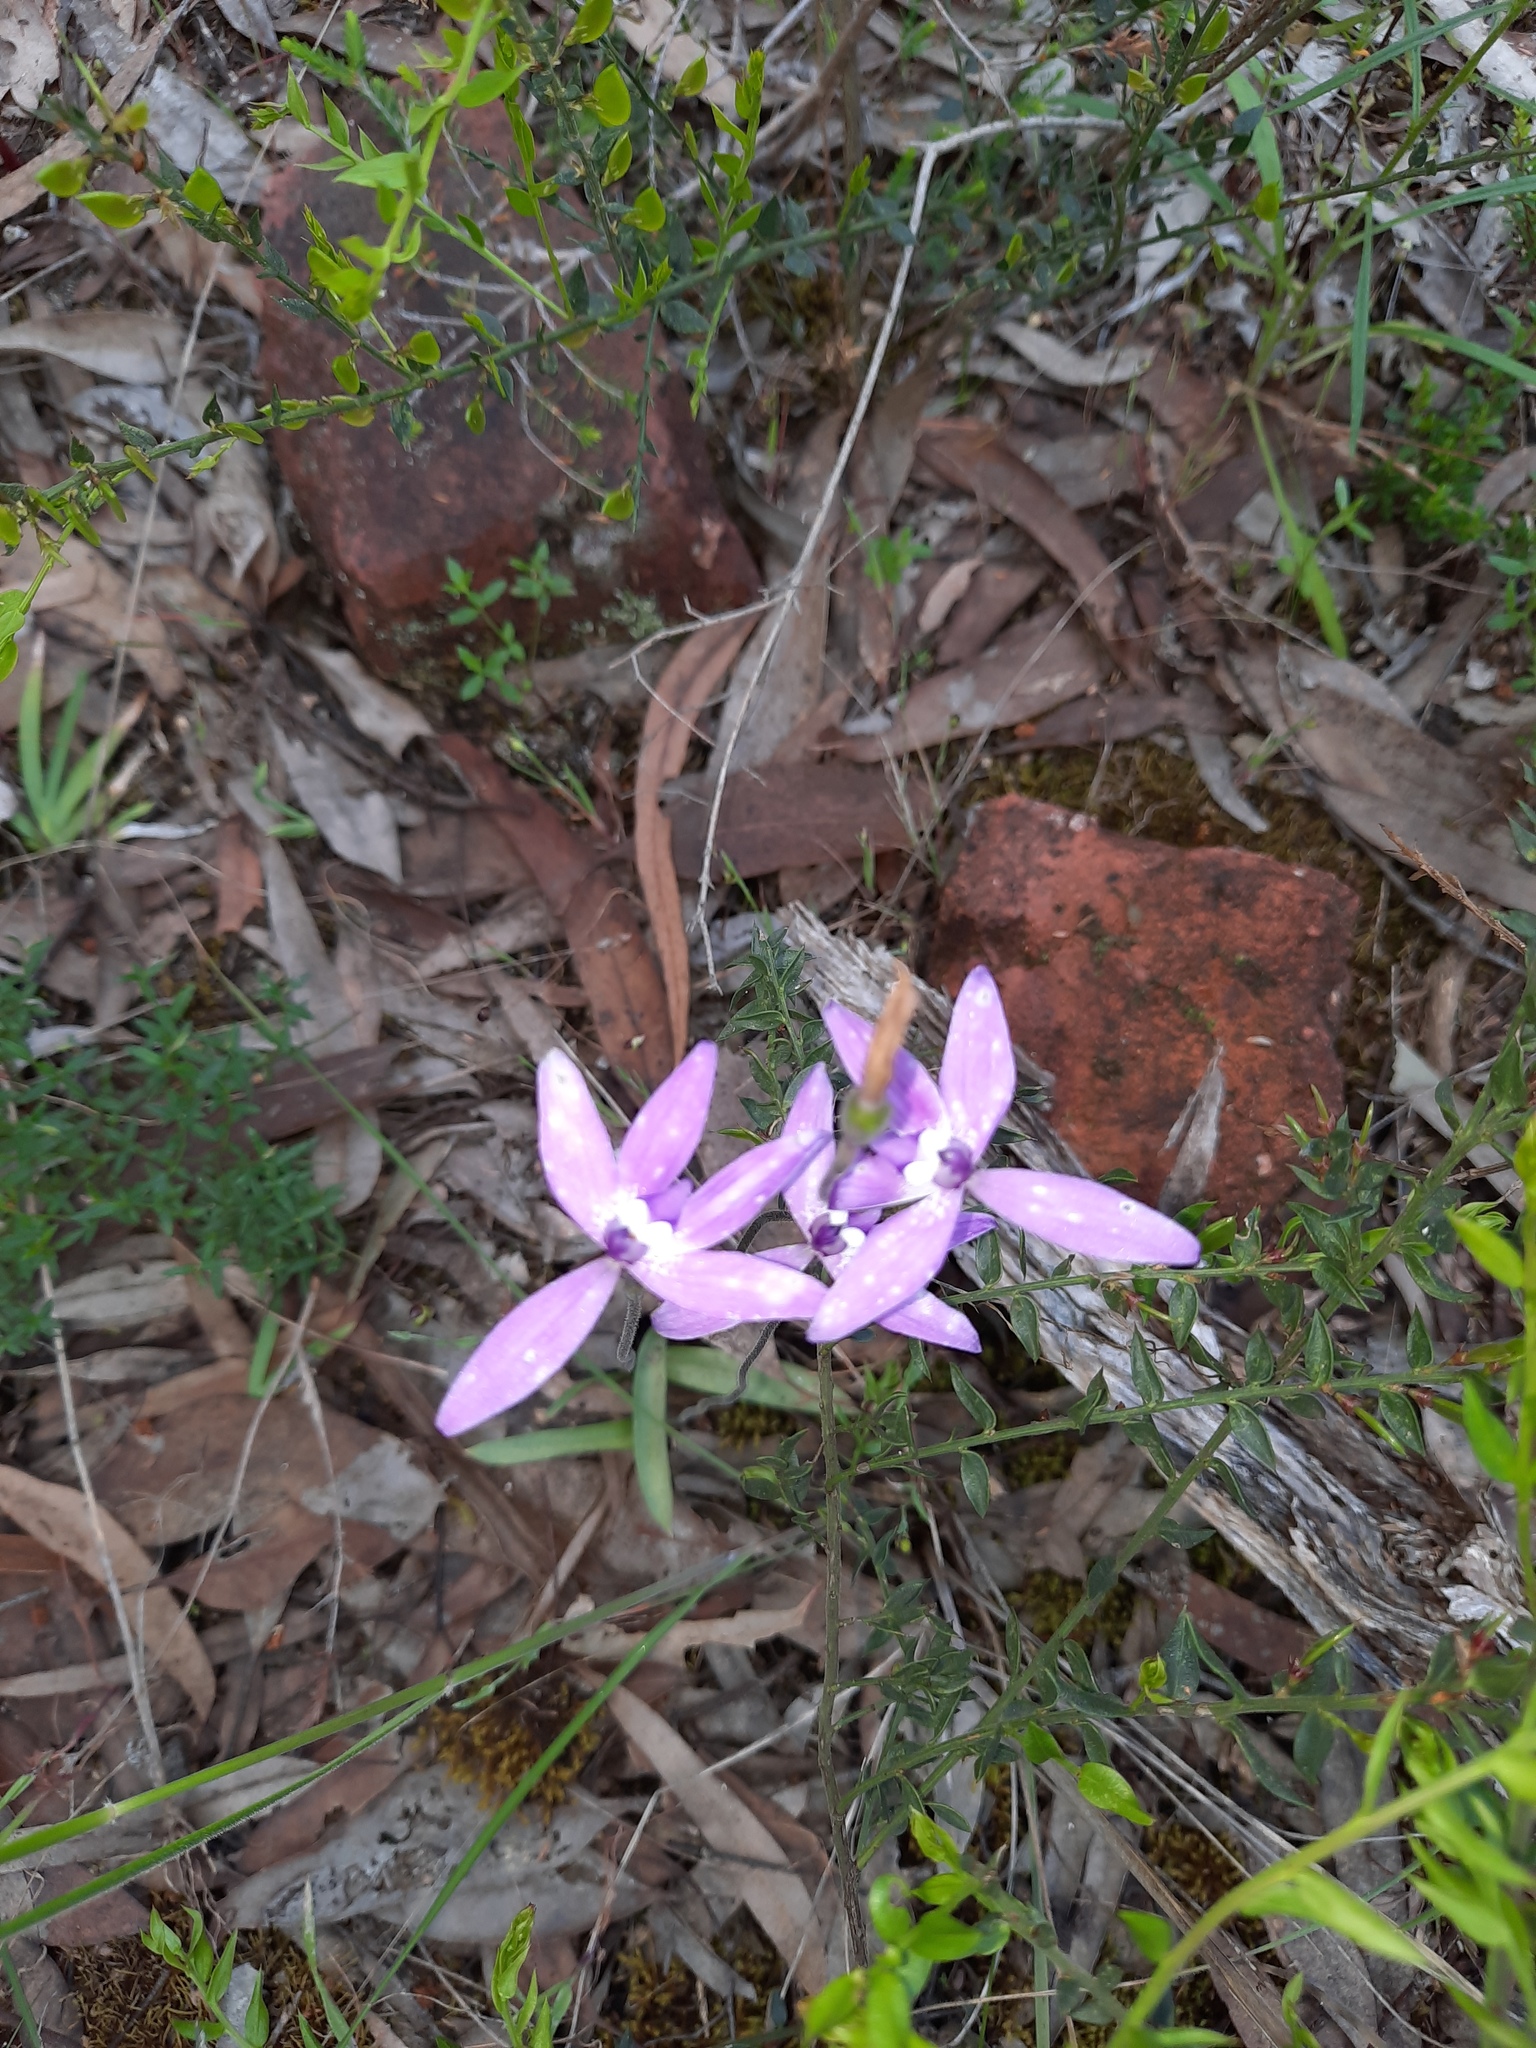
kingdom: Plantae
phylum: Tracheophyta
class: Liliopsida
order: Asparagales
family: Orchidaceae
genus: Caladenia
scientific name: Caladenia major
